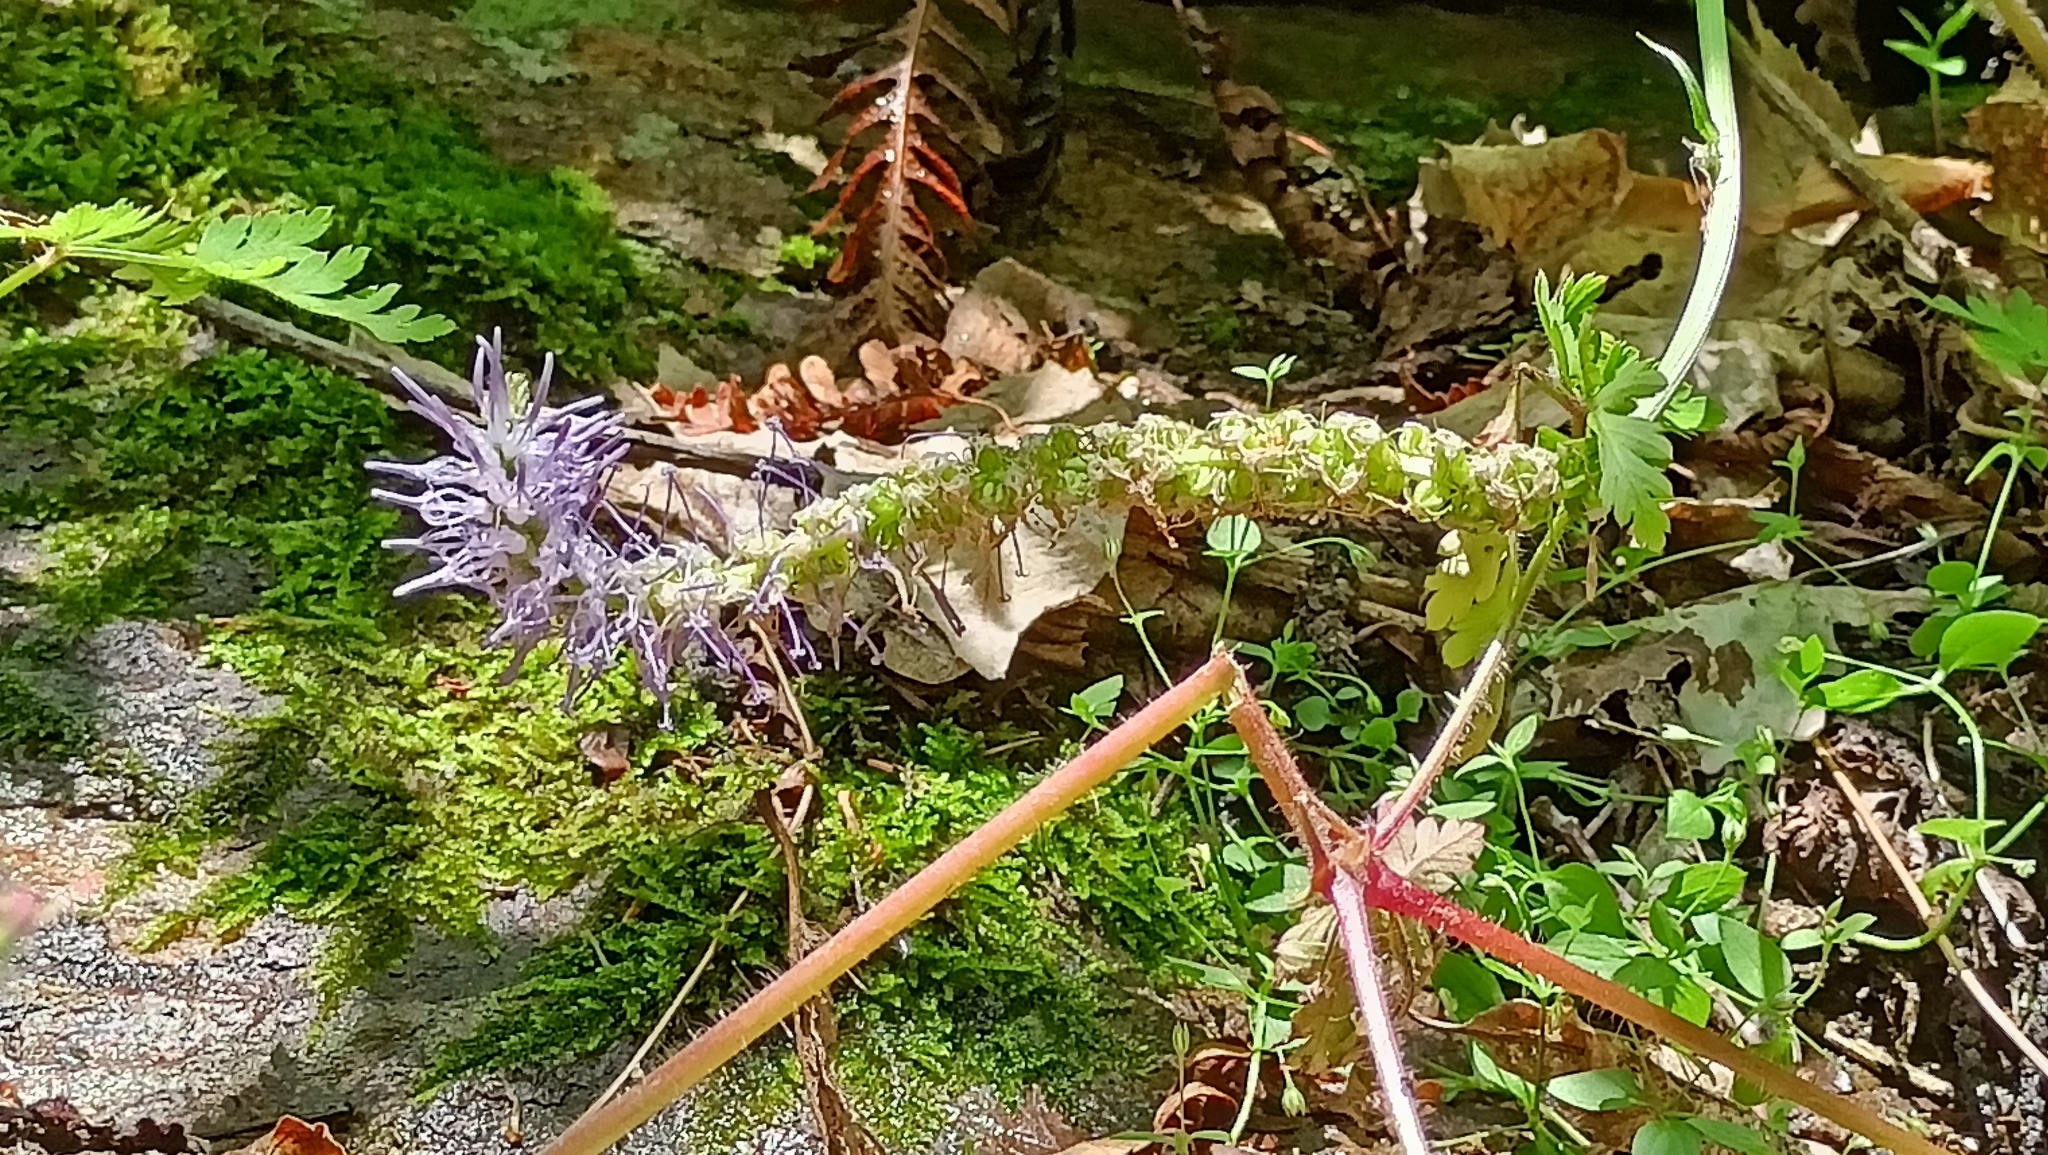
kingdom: Plantae
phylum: Tracheophyta
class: Magnoliopsida
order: Asterales
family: Campanulaceae
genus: Phyteuma
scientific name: Phyteuma betonicifolium
